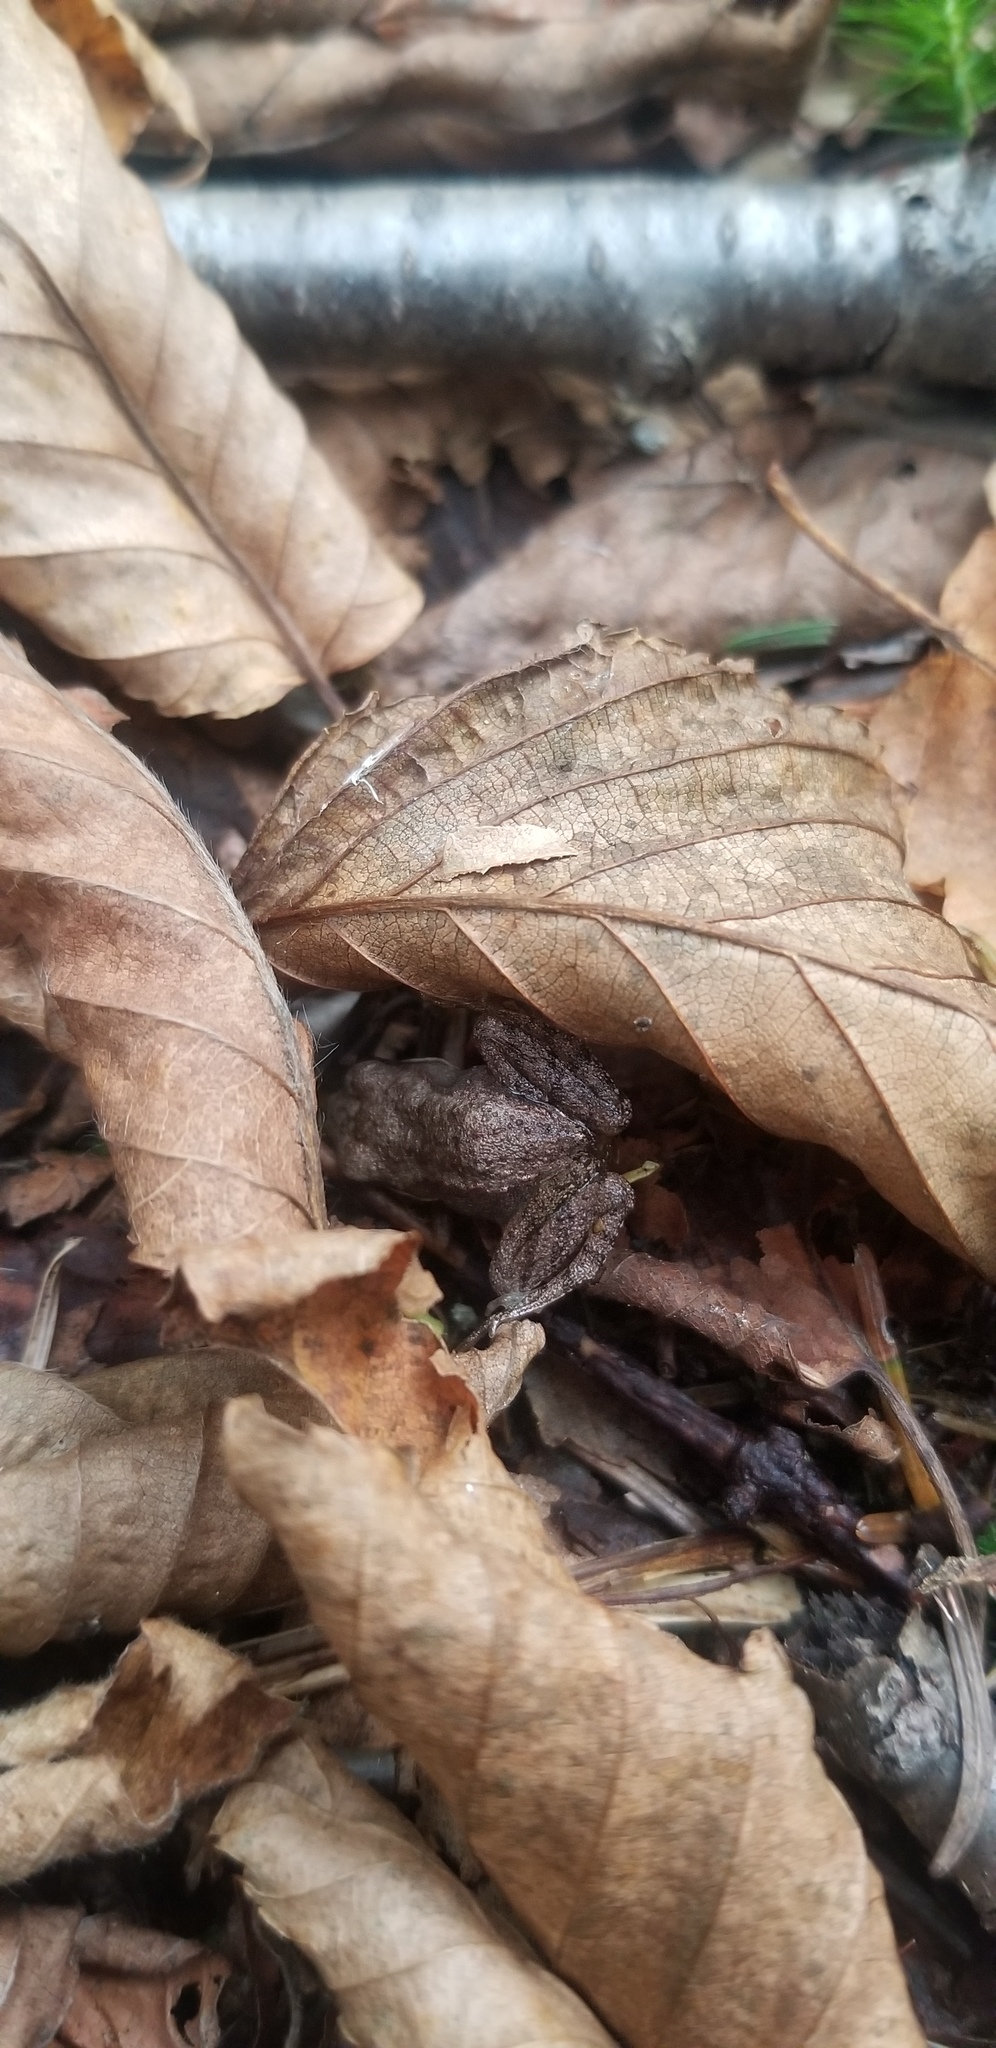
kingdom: Animalia
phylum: Chordata
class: Amphibia
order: Anura
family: Ranidae
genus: Lithobates
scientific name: Lithobates sylvaticus
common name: Wood frog
